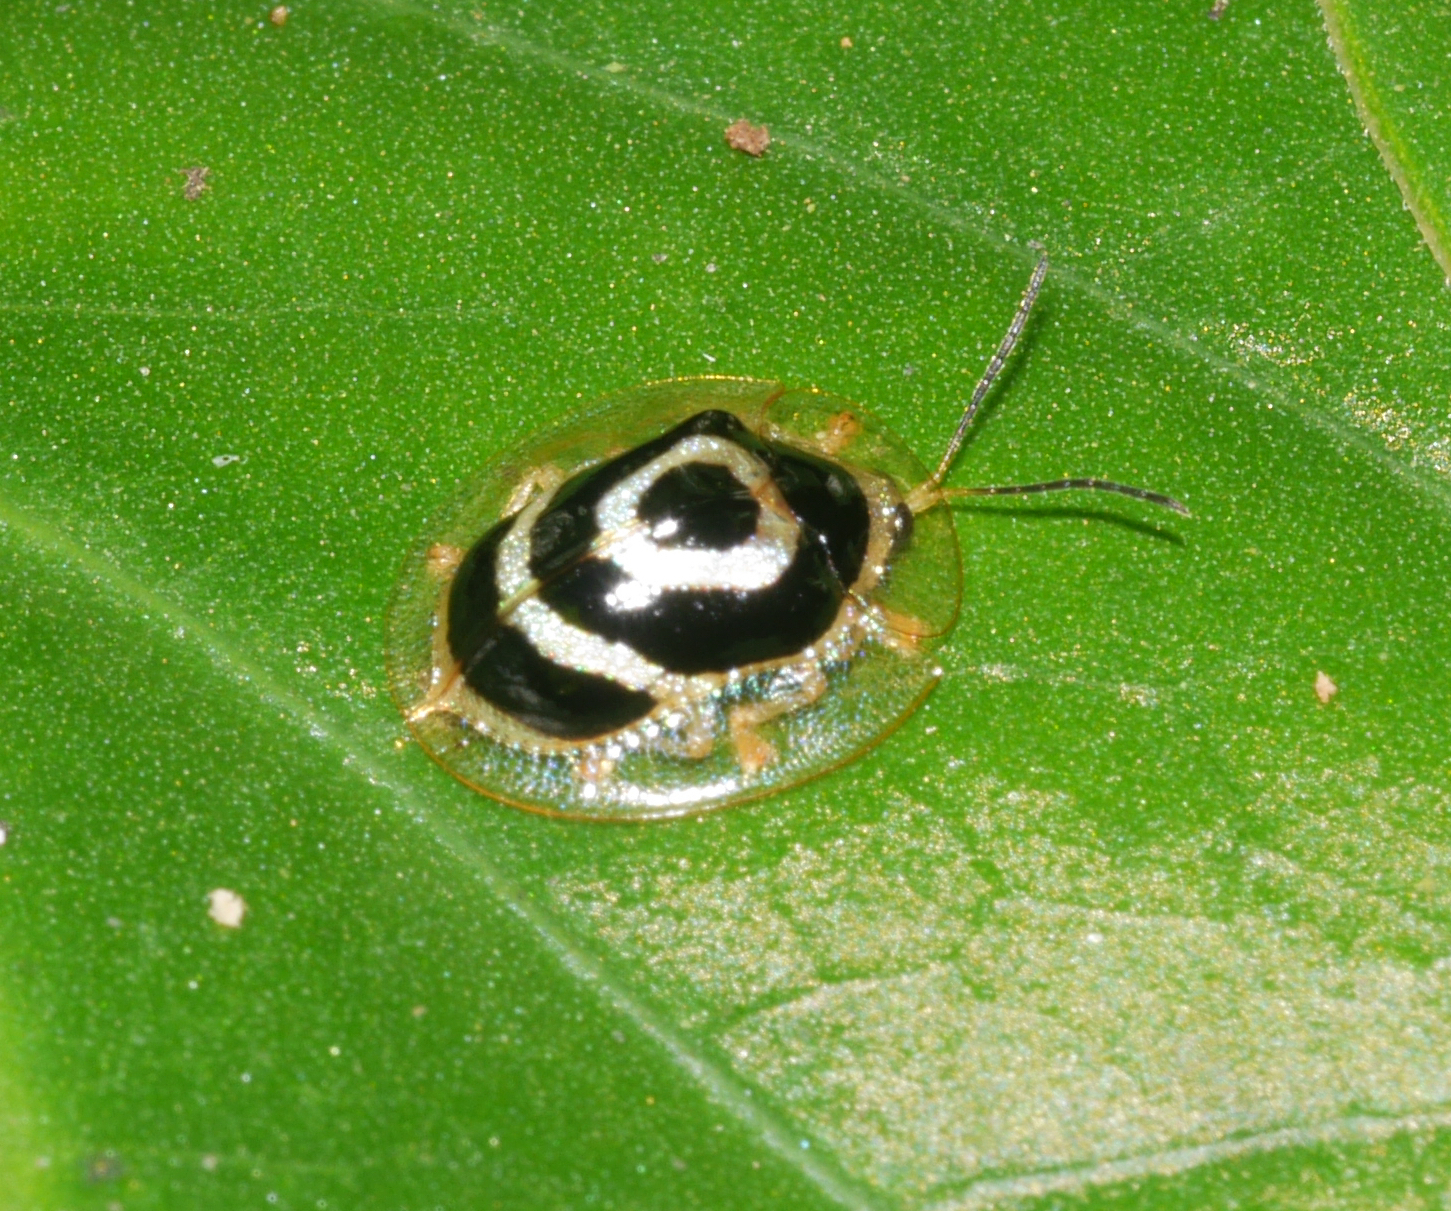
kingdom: Animalia
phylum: Arthropoda
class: Insecta
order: Coleoptera
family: Chrysomelidae
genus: Ischnocodia
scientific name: Ischnocodia annulus
